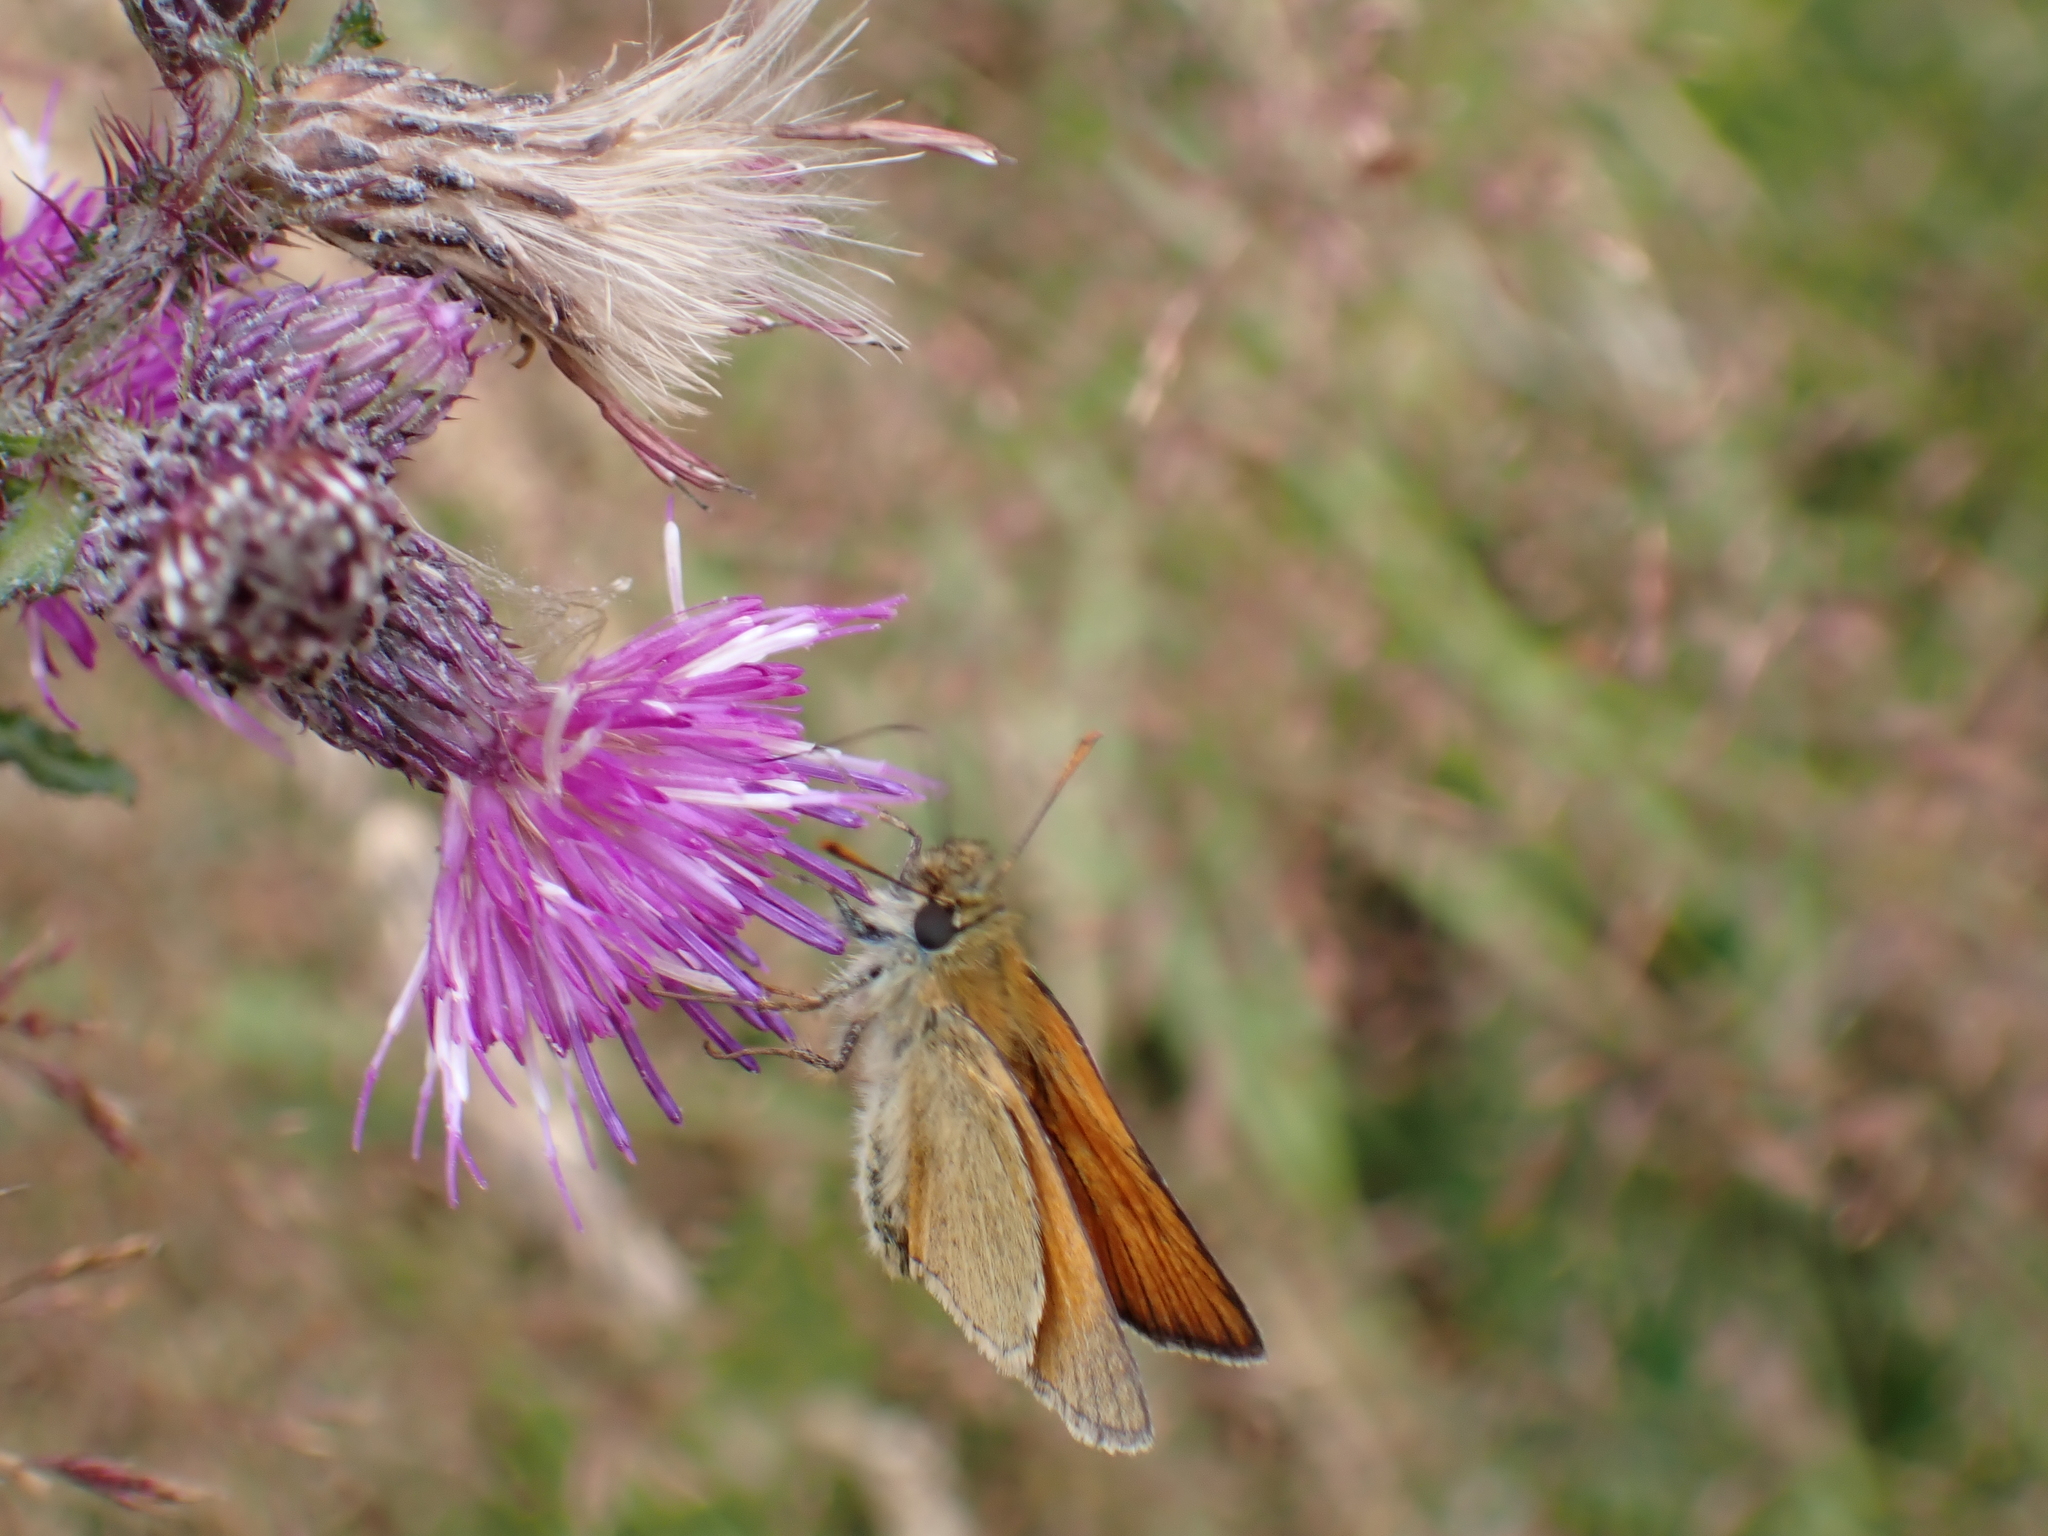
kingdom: Animalia
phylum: Arthropoda
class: Insecta
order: Lepidoptera
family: Hesperiidae
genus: Thymelicus
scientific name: Thymelicus sylvestris
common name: Small skipper
